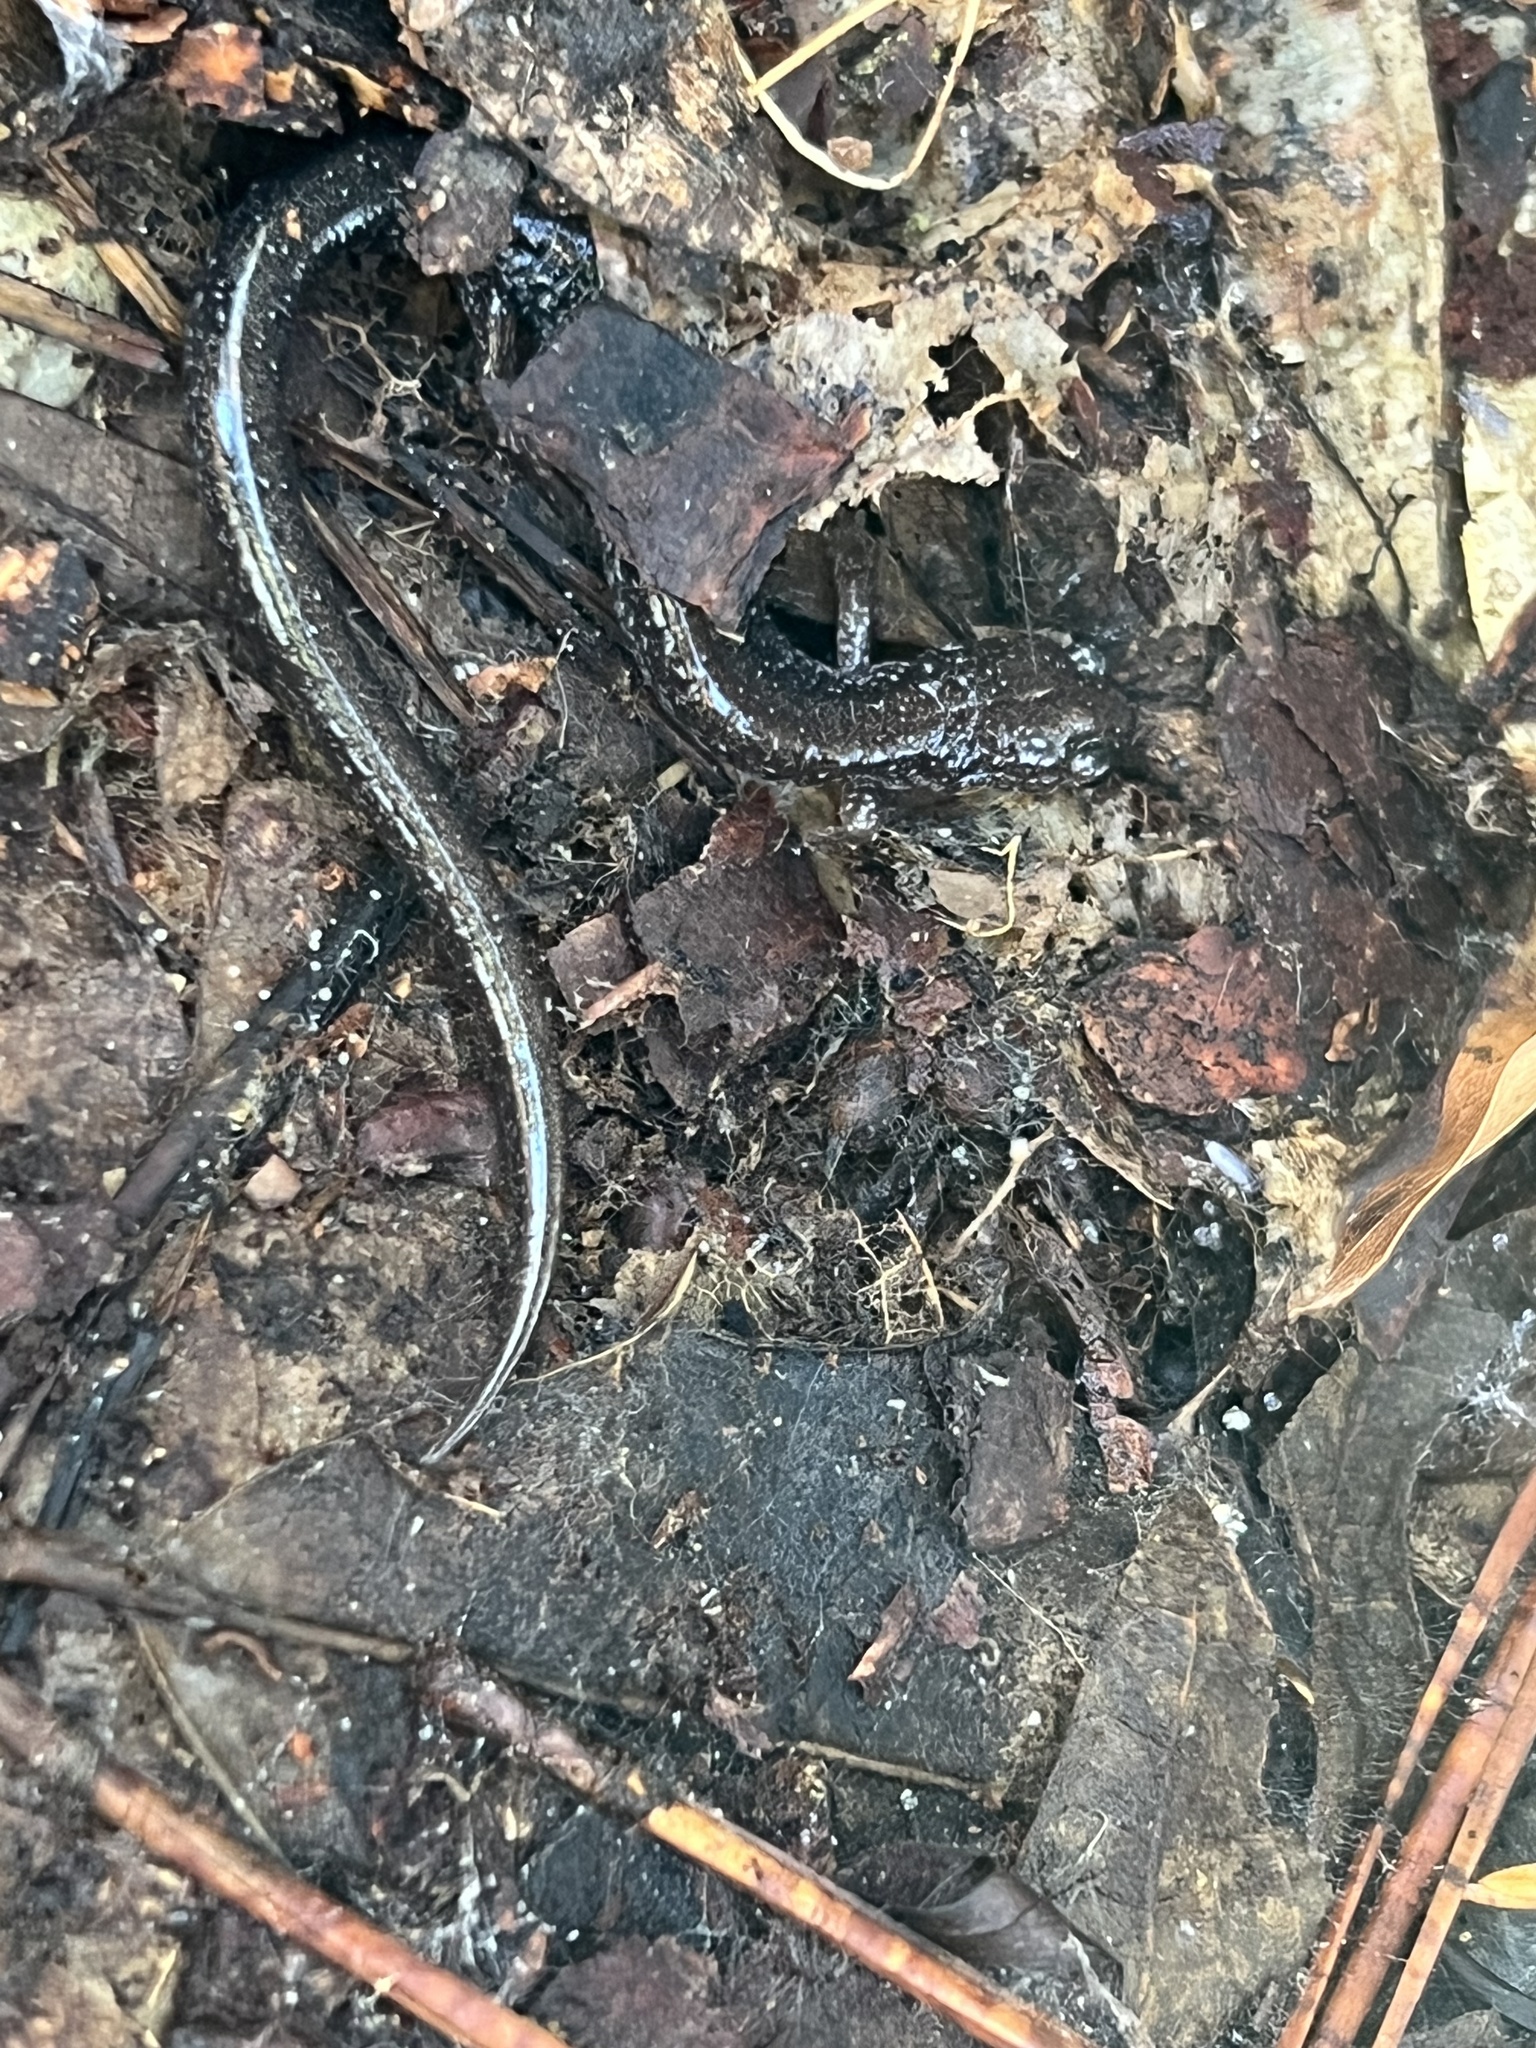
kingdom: Animalia
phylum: Chordata
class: Amphibia
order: Caudata
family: Plethodontidae
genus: Plethodon
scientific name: Plethodon cinereus
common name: Redback salamander
